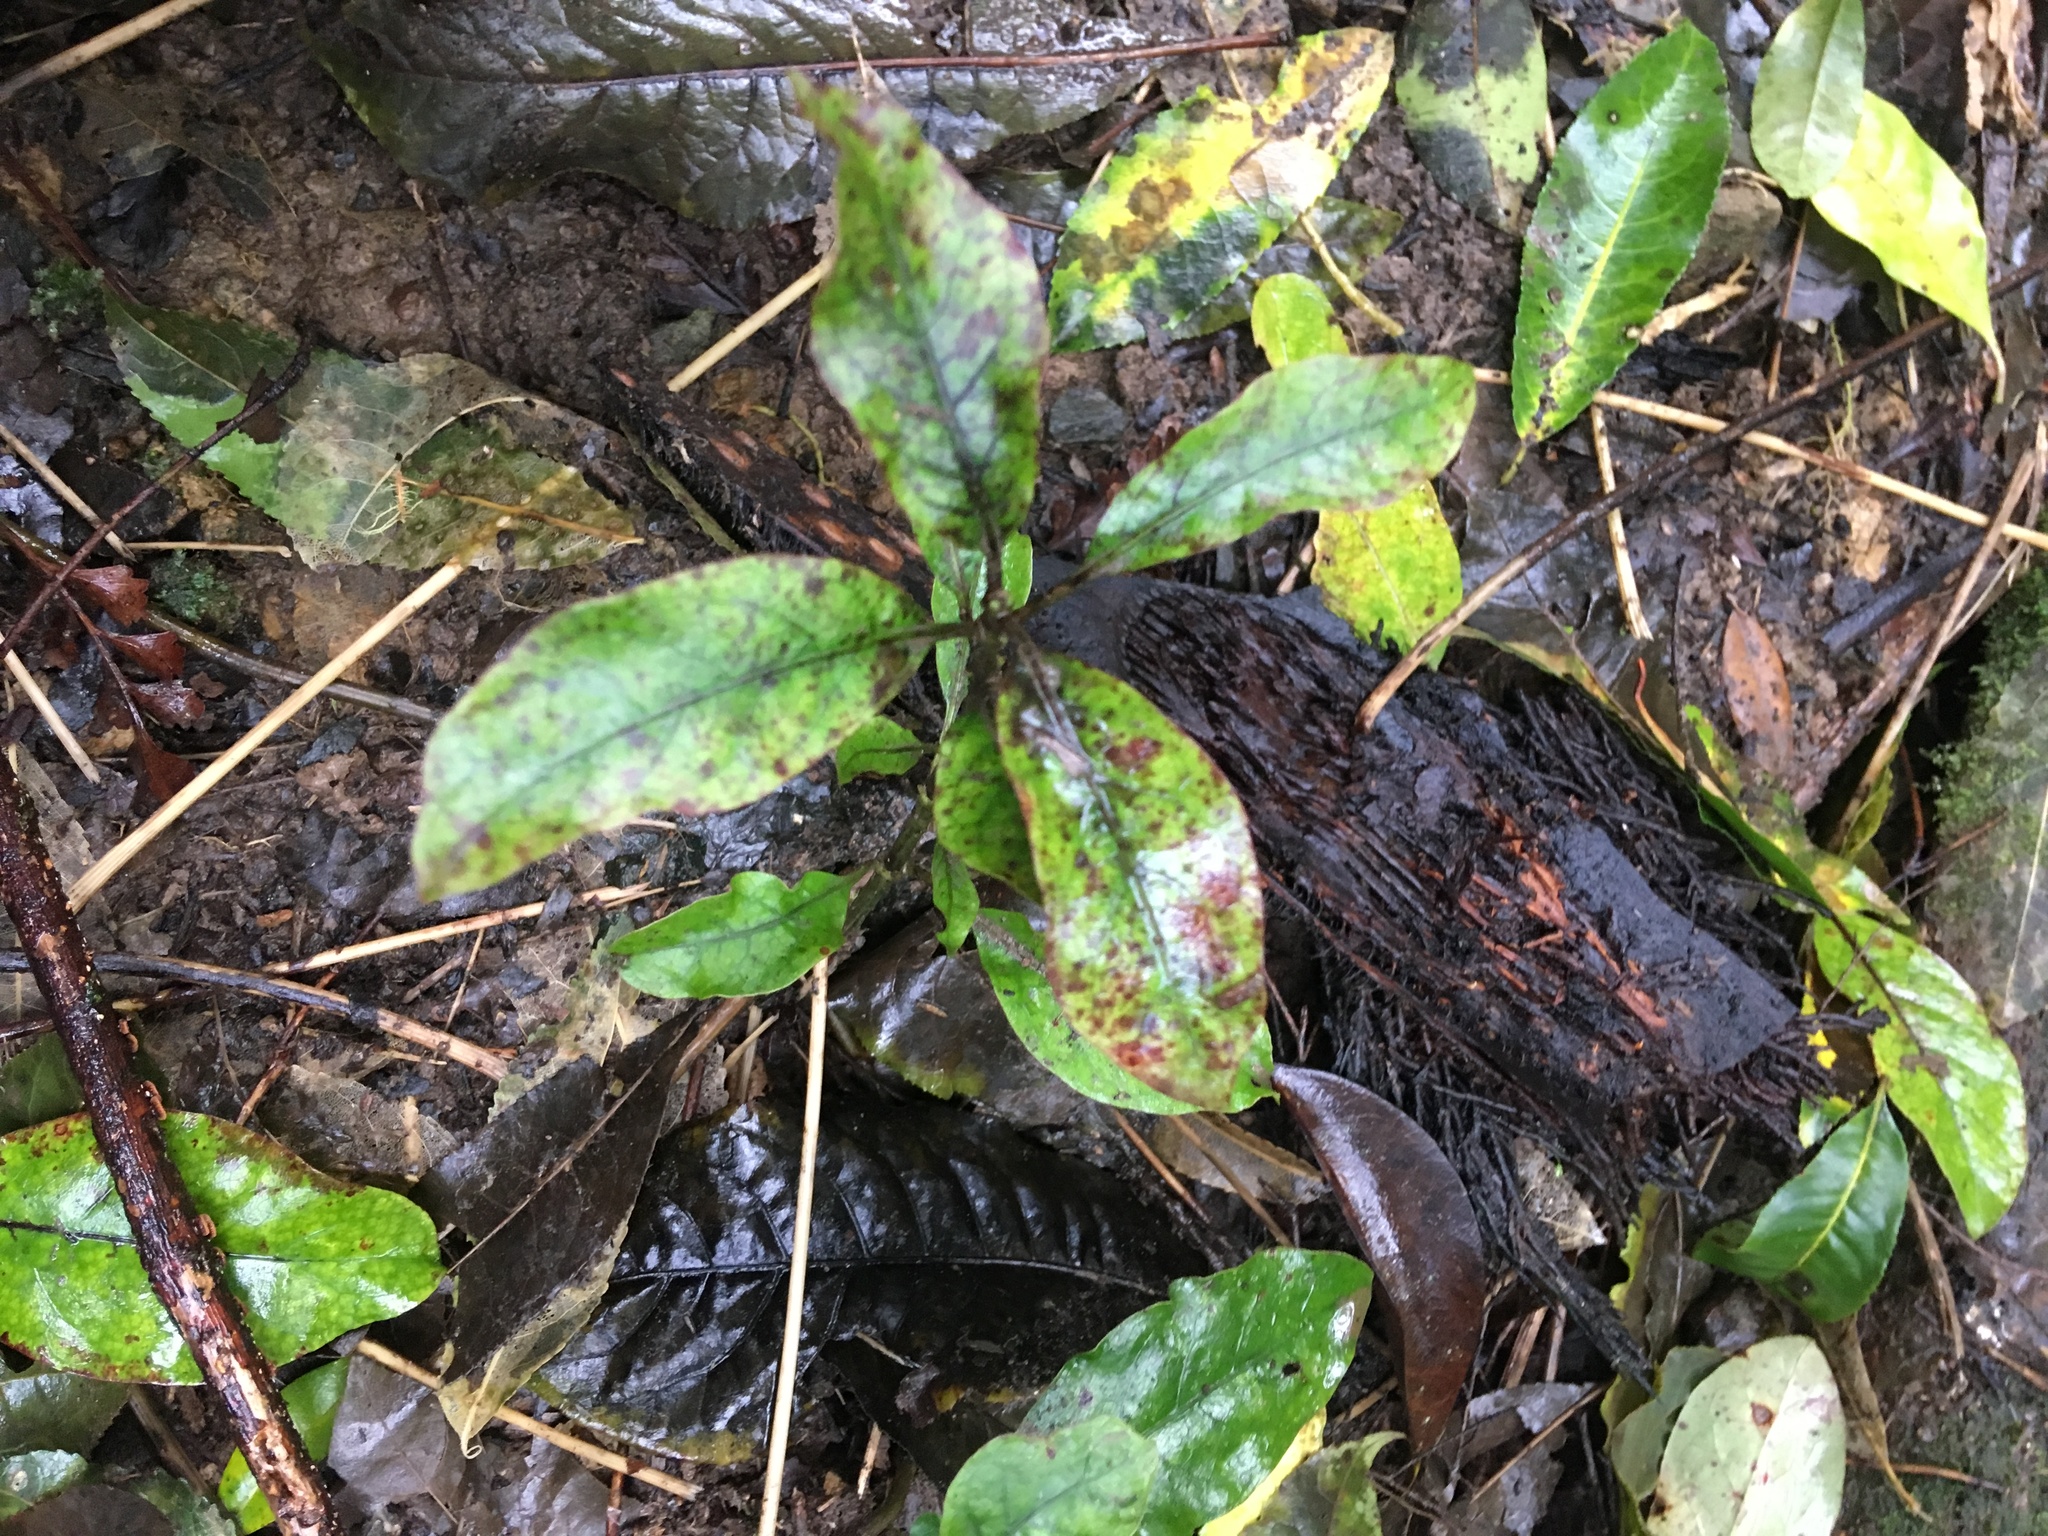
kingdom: Plantae
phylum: Tracheophyta
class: Magnoliopsida
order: Gentianales
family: Rubiaceae
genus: Coprosma
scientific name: Coprosma autumnalis
